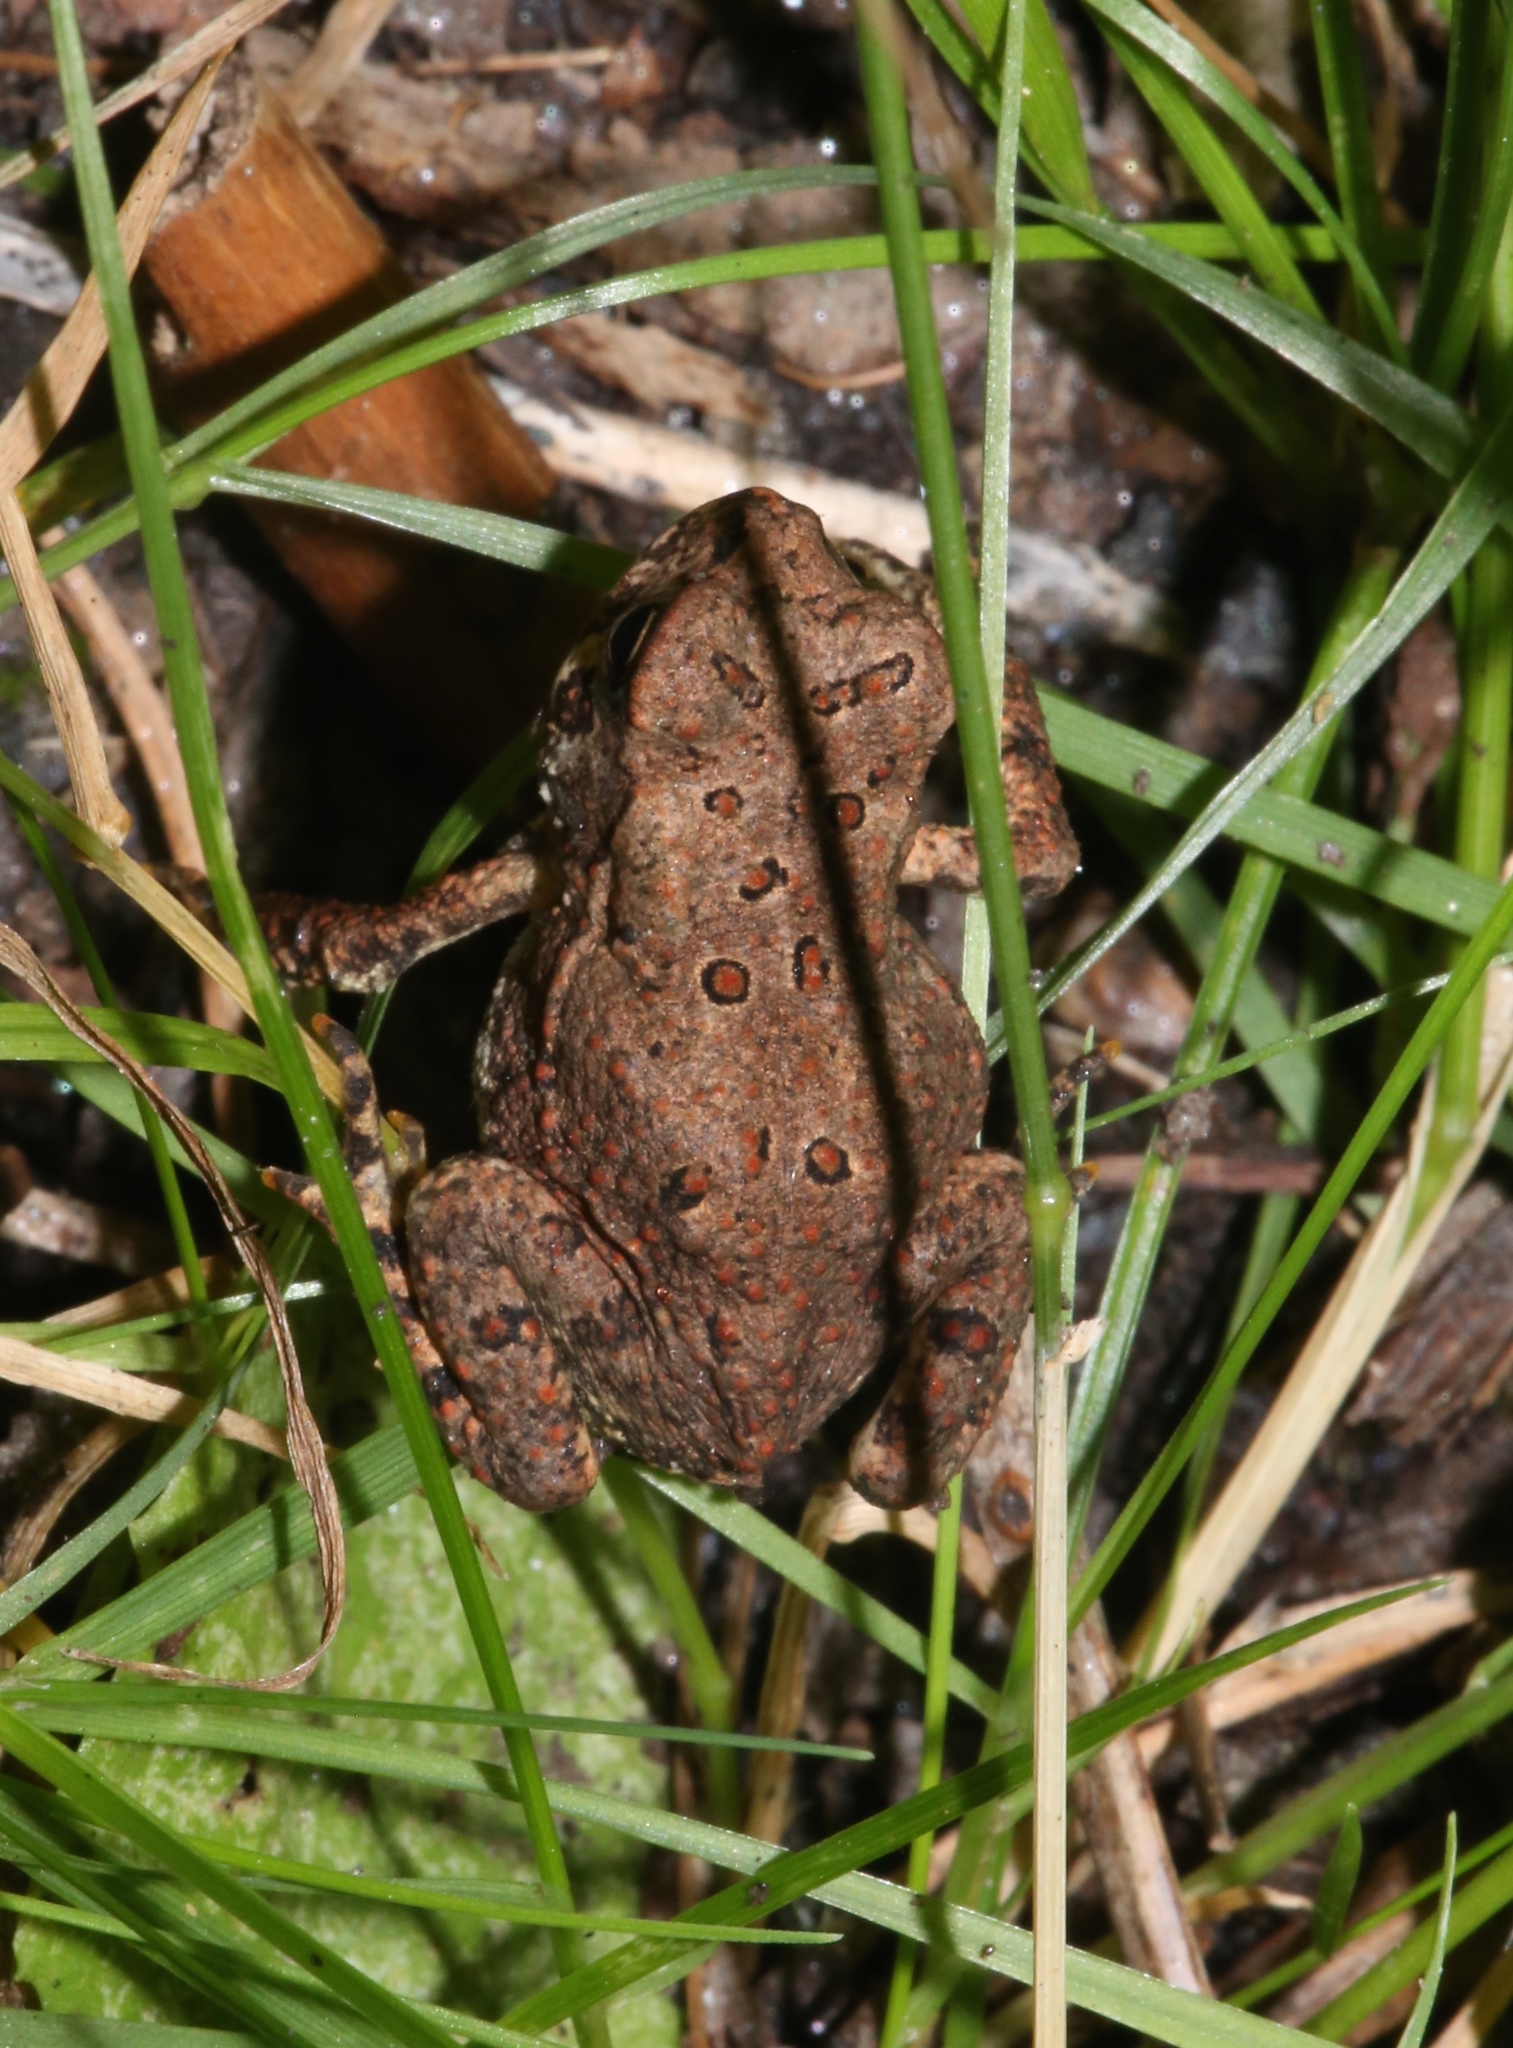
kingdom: Animalia
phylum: Chordata
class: Amphibia
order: Anura
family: Bufonidae
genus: Anaxyrus
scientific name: Anaxyrus americanus
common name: American toad
